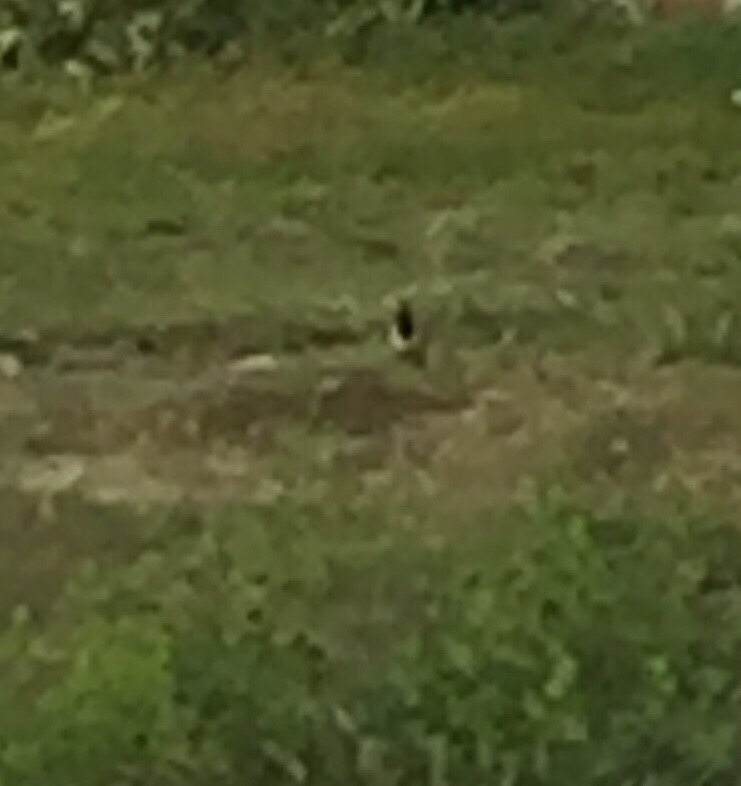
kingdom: Animalia
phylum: Chordata
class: Aves
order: Charadriiformes
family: Charadriidae
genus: Vanellus
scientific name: Vanellus indicus
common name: Red-wattled lapwing
